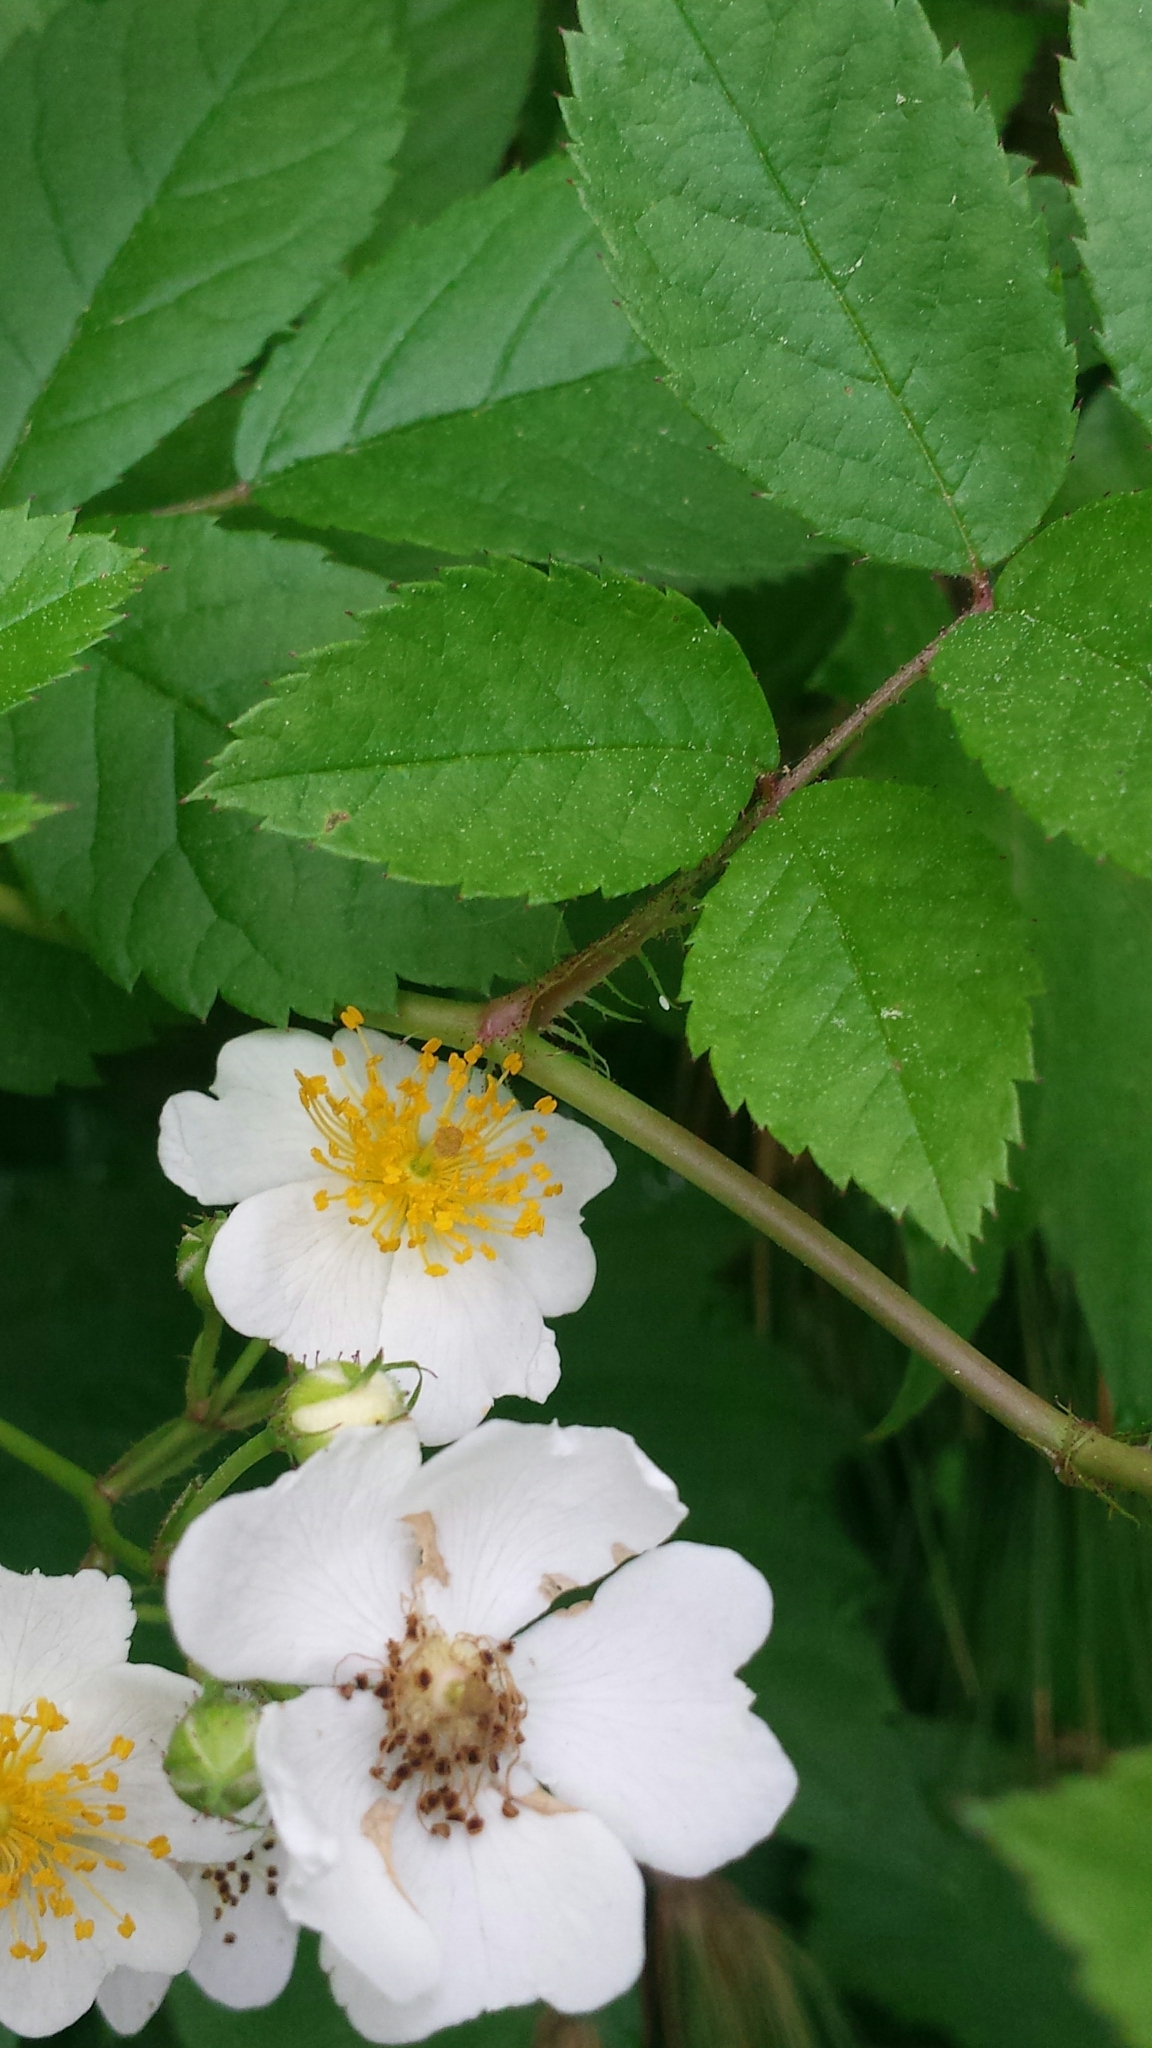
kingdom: Plantae
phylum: Tracheophyta
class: Magnoliopsida
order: Rosales
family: Rosaceae
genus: Rosa
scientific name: Rosa multiflora
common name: Multiflora rose
